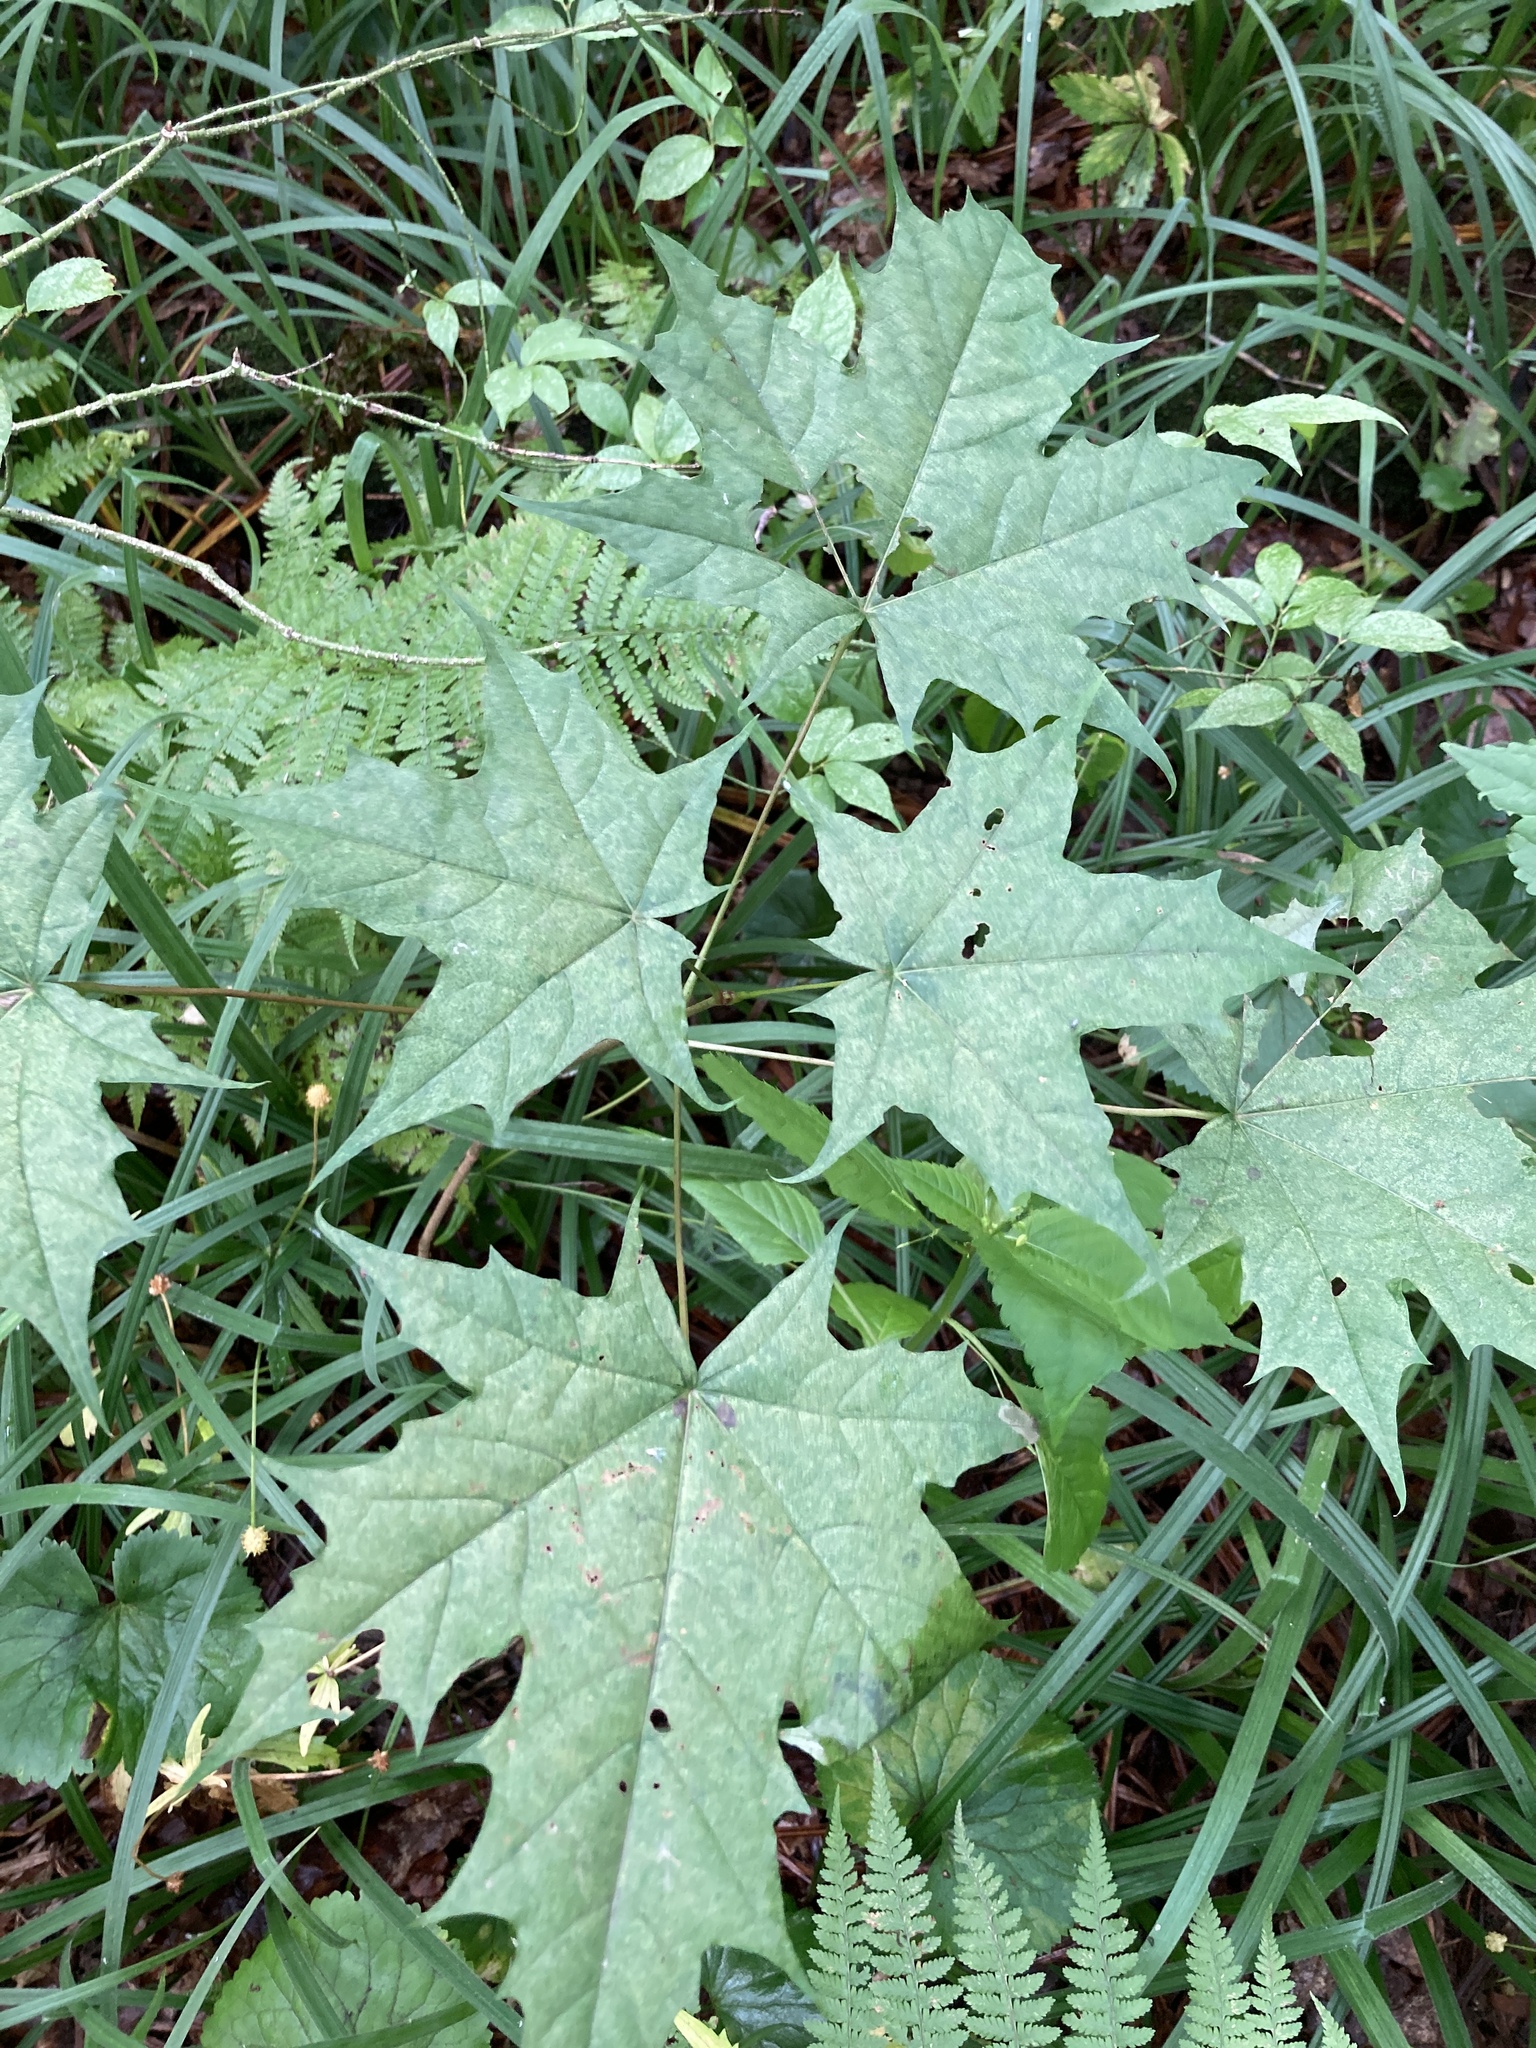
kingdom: Plantae
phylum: Tracheophyta
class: Magnoliopsida
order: Sapindales
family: Sapindaceae
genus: Acer
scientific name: Acer platanoides
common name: Norway maple
